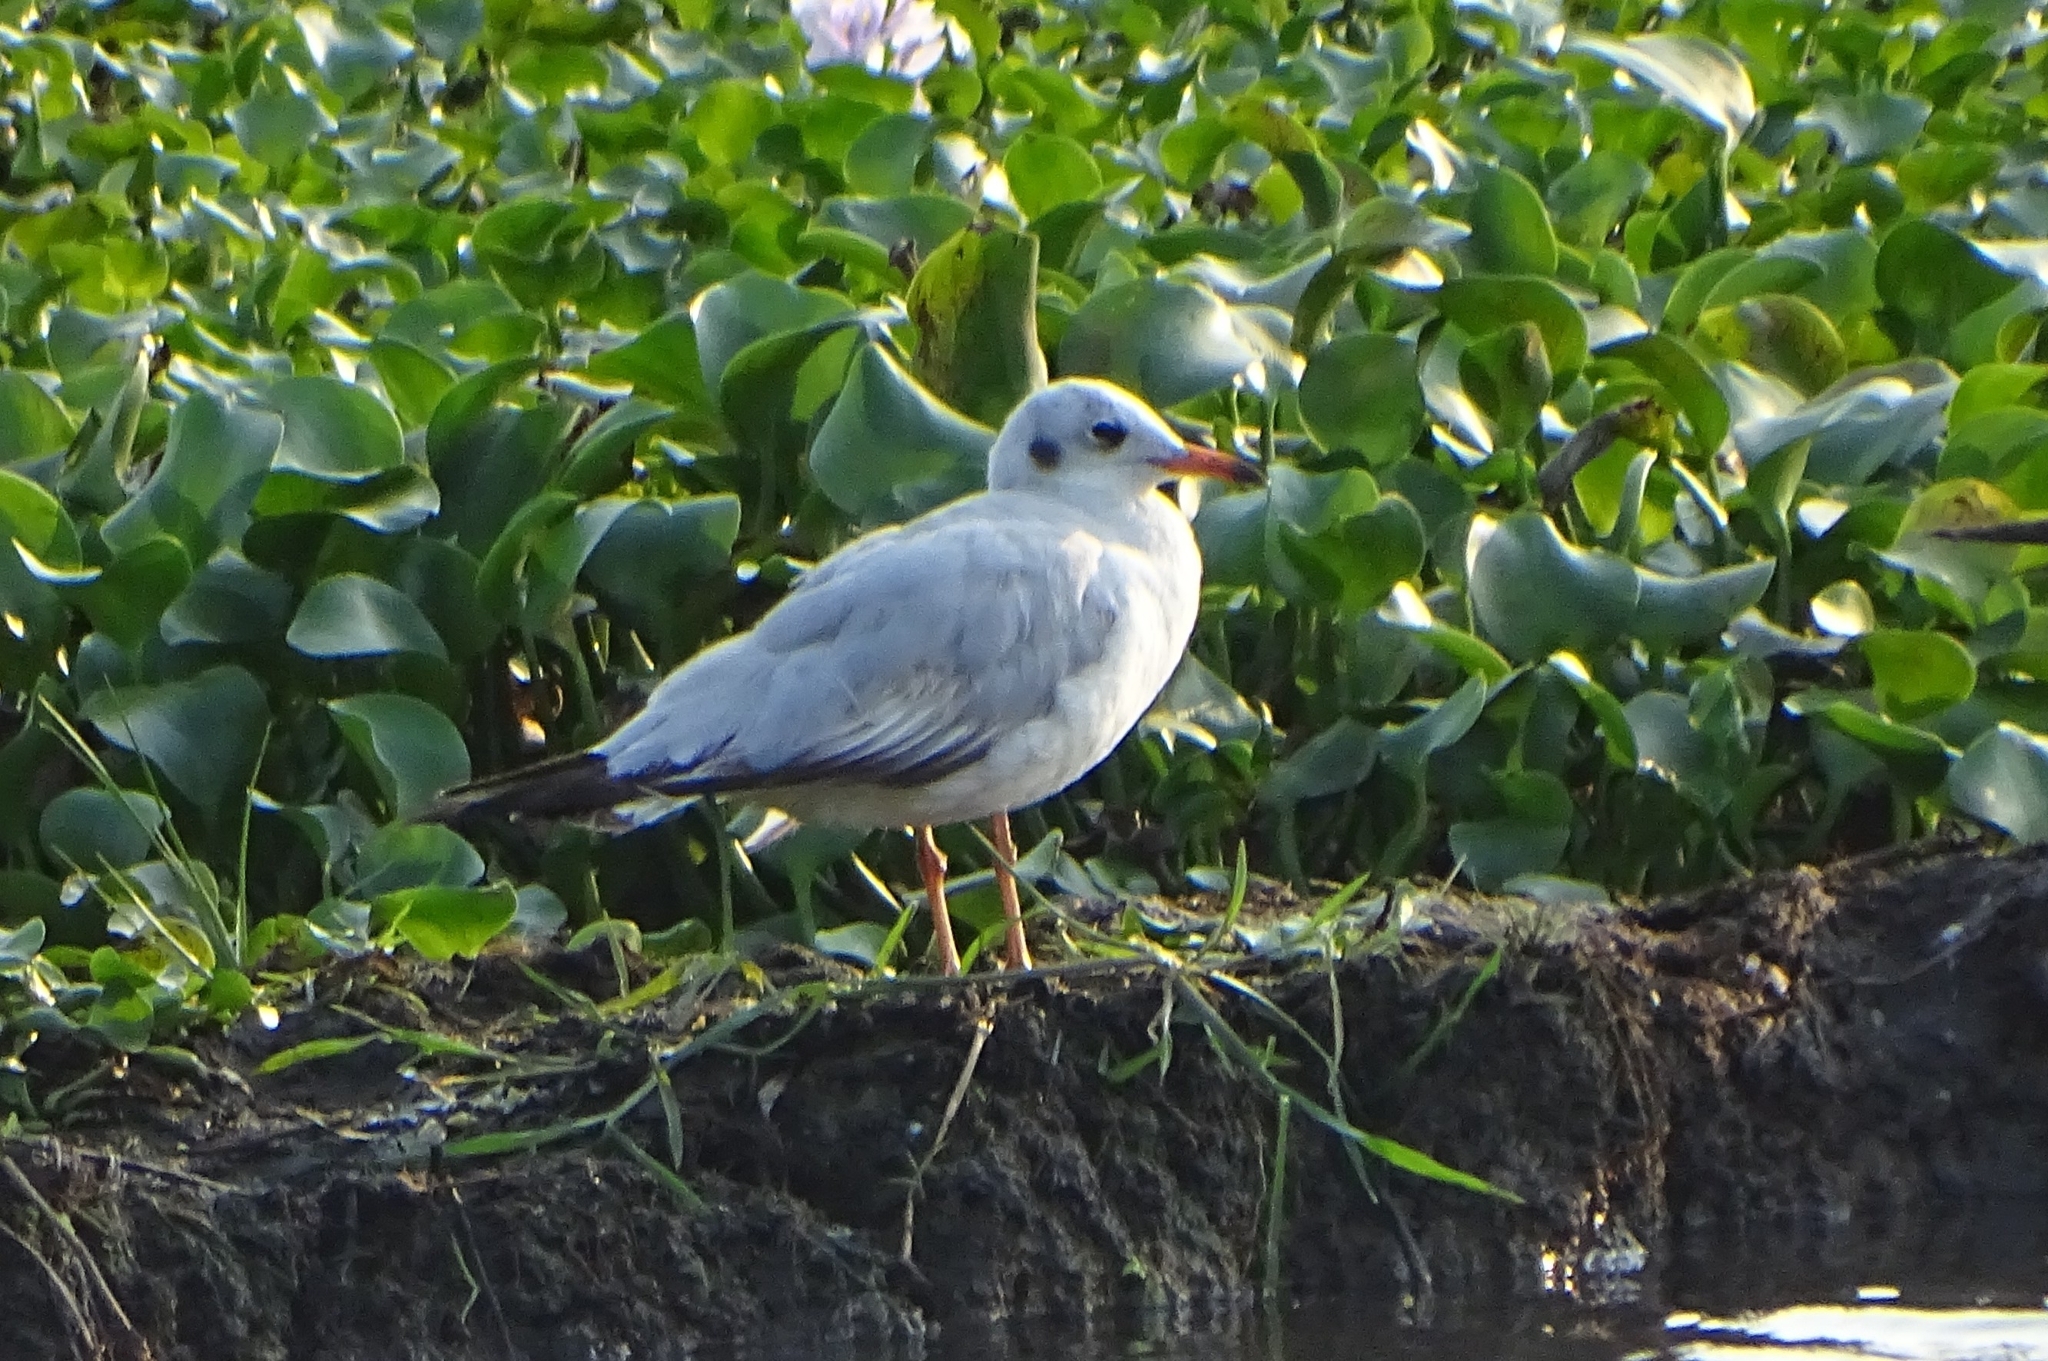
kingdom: Animalia
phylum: Chordata
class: Aves
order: Charadriiformes
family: Laridae
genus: Chroicocephalus
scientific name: Chroicocephalus brunnicephalus
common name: Brown-headed gull
